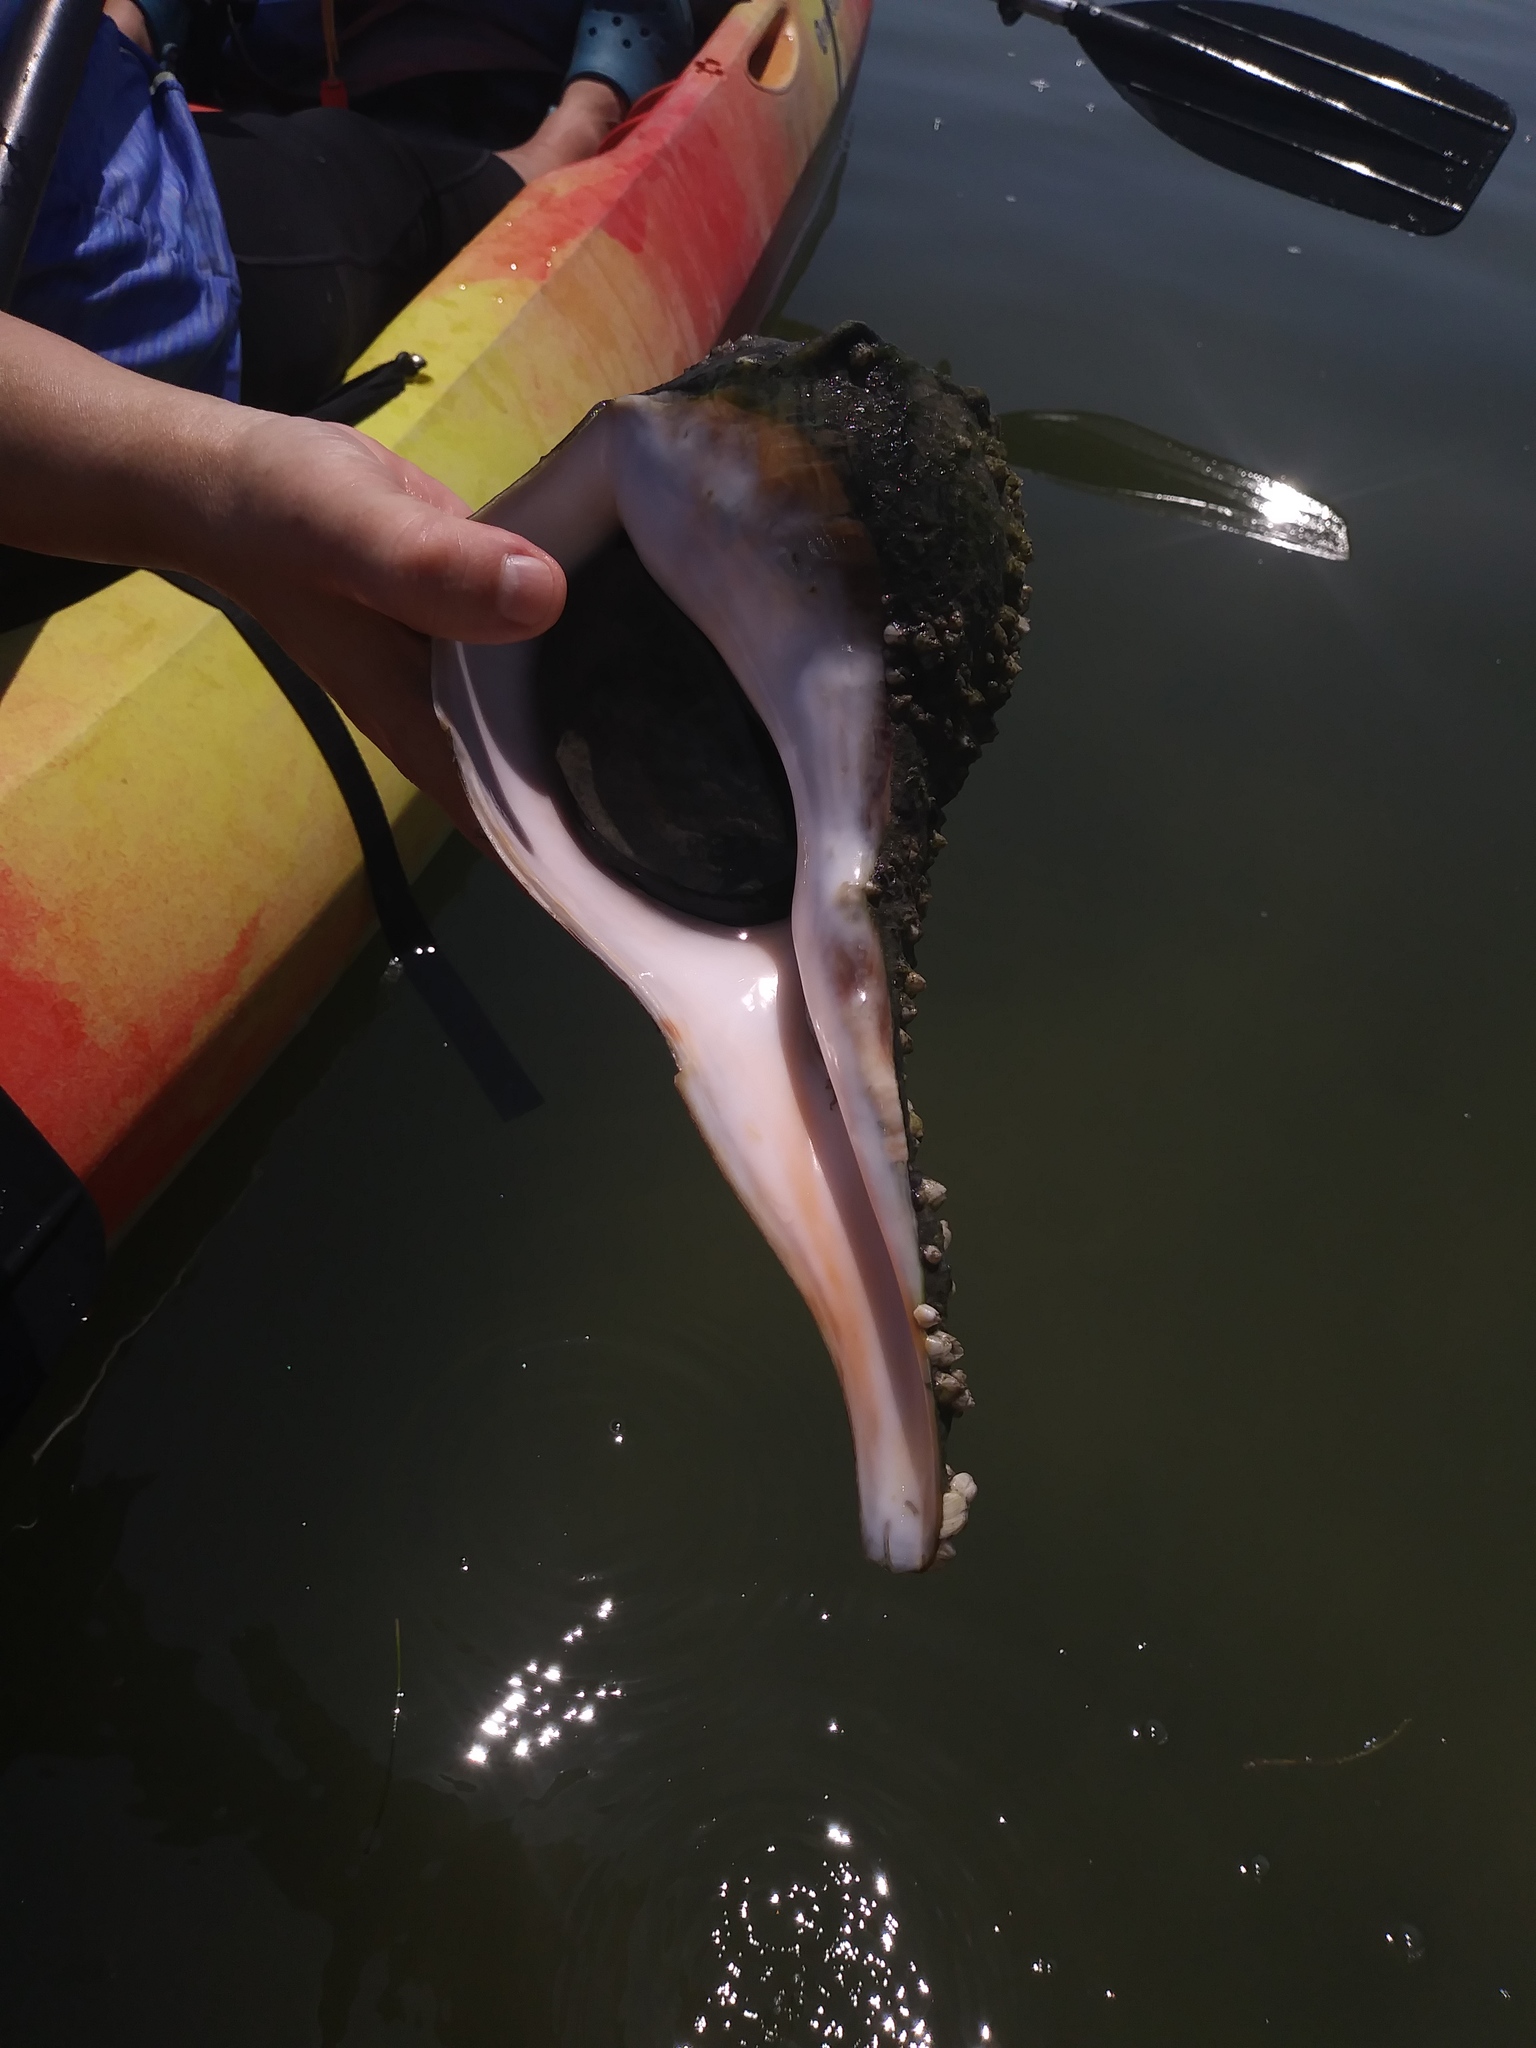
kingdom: Animalia
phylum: Mollusca
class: Gastropoda
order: Neogastropoda
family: Busyconidae
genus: Sinistrofulgur
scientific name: Sinistrofulgur sinistrum
